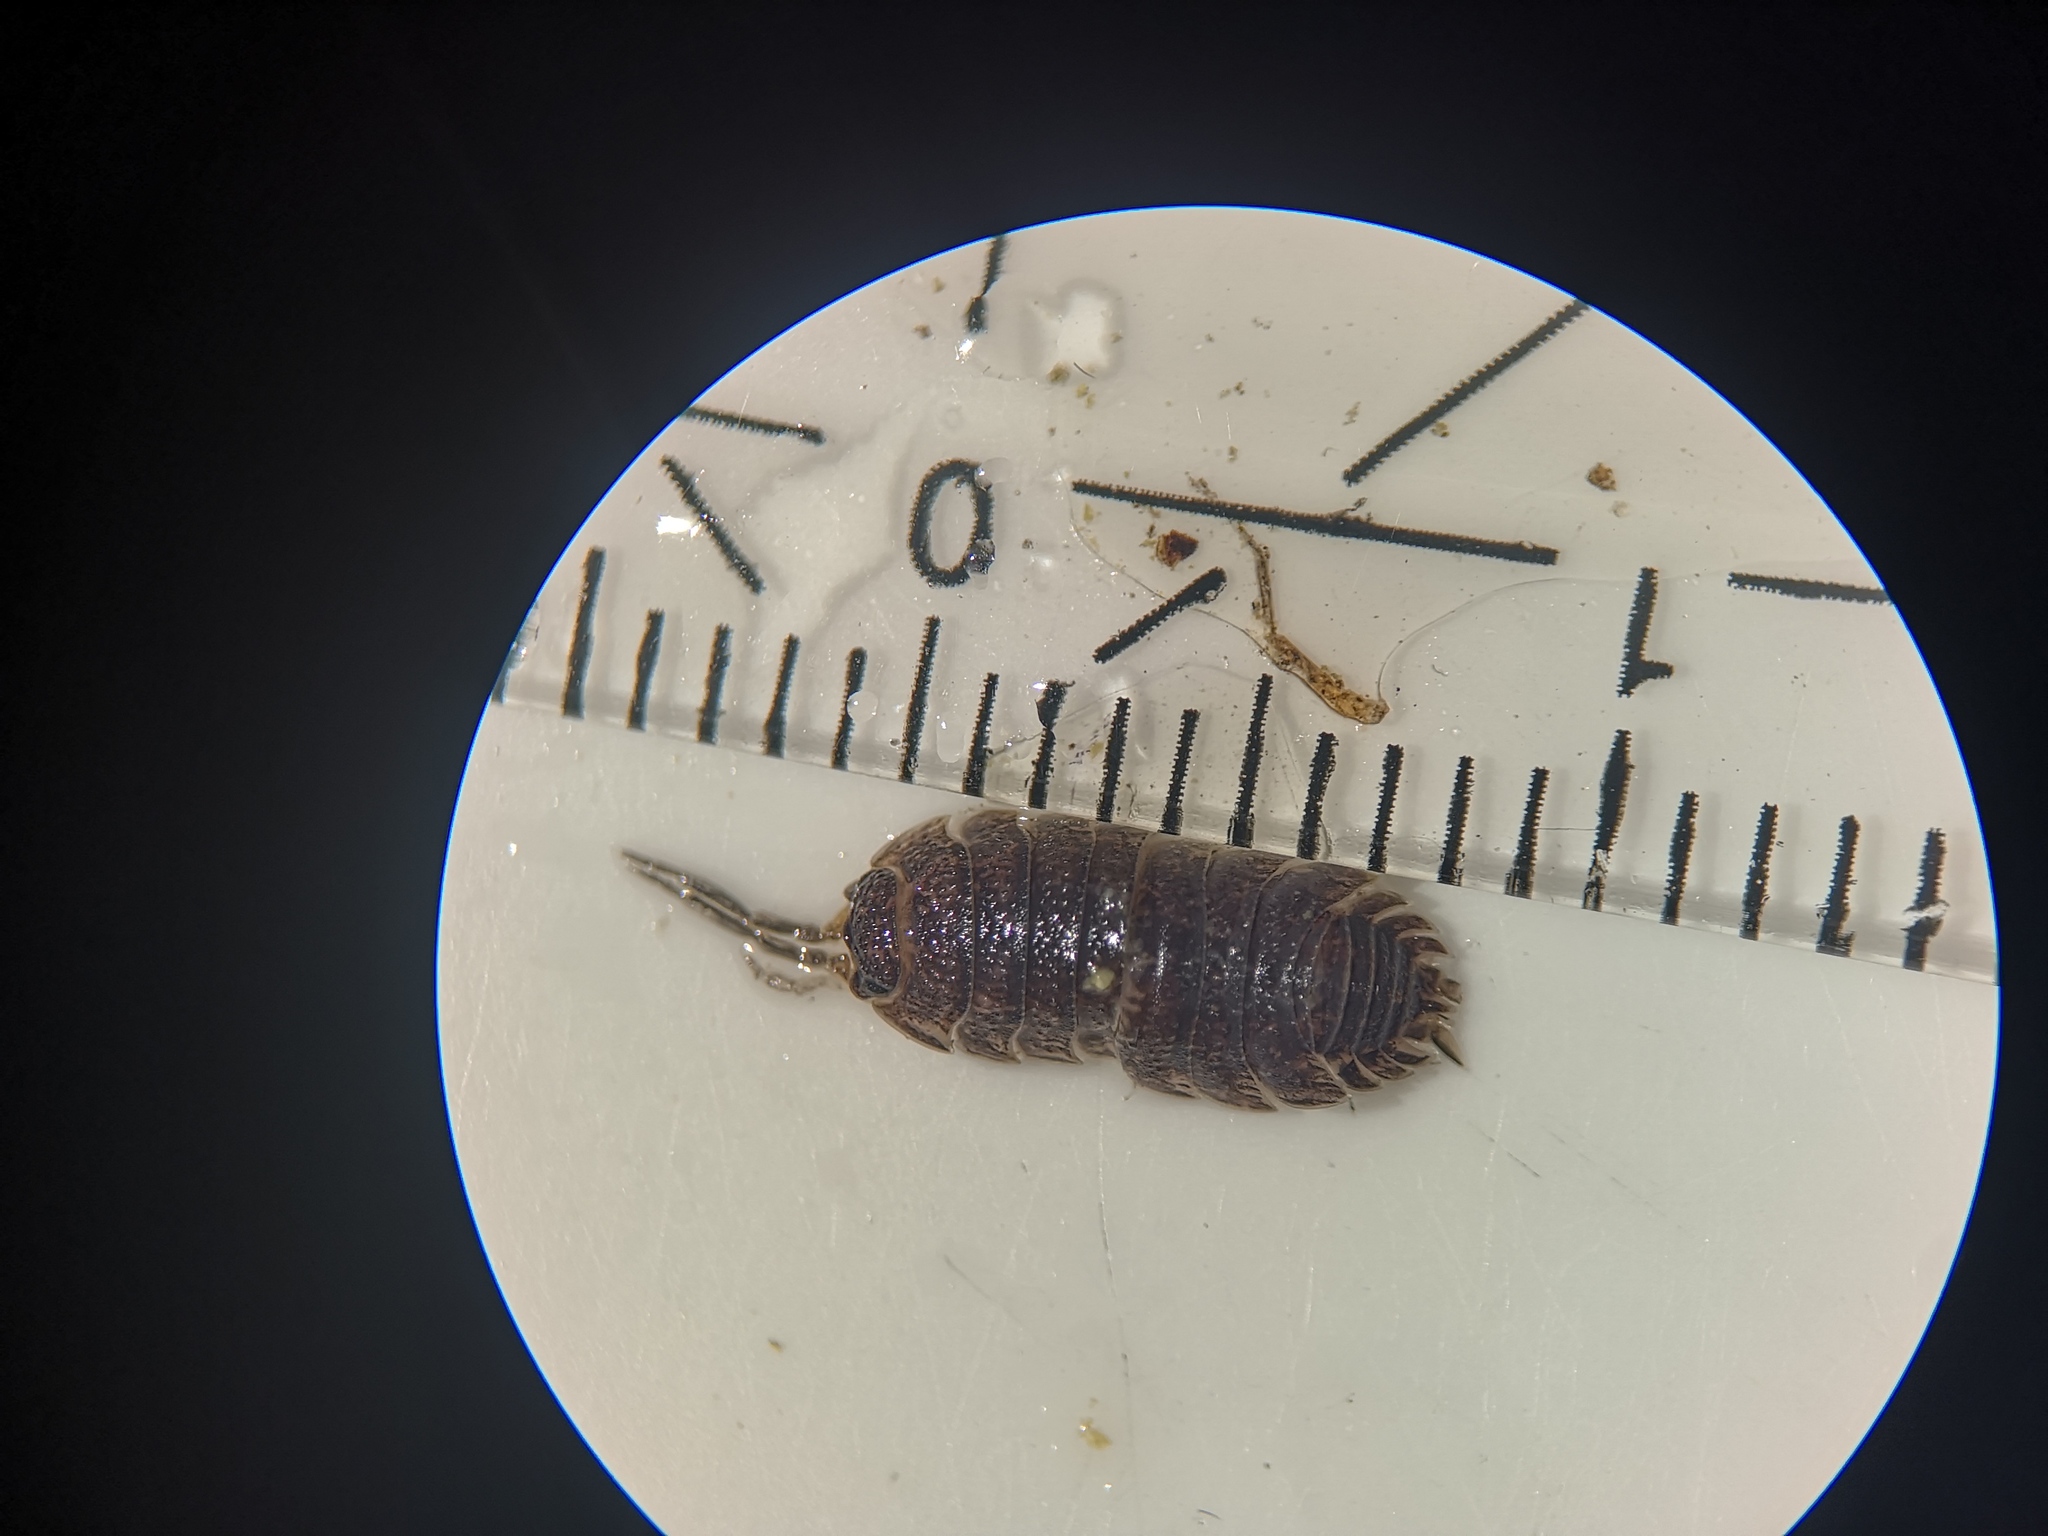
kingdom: Animalia
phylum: Arthropoda
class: Malacostraca
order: Isopoda
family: Porcellionidae
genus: Porcellio
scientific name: Porcellio scaber
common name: Common rough woodlouse
